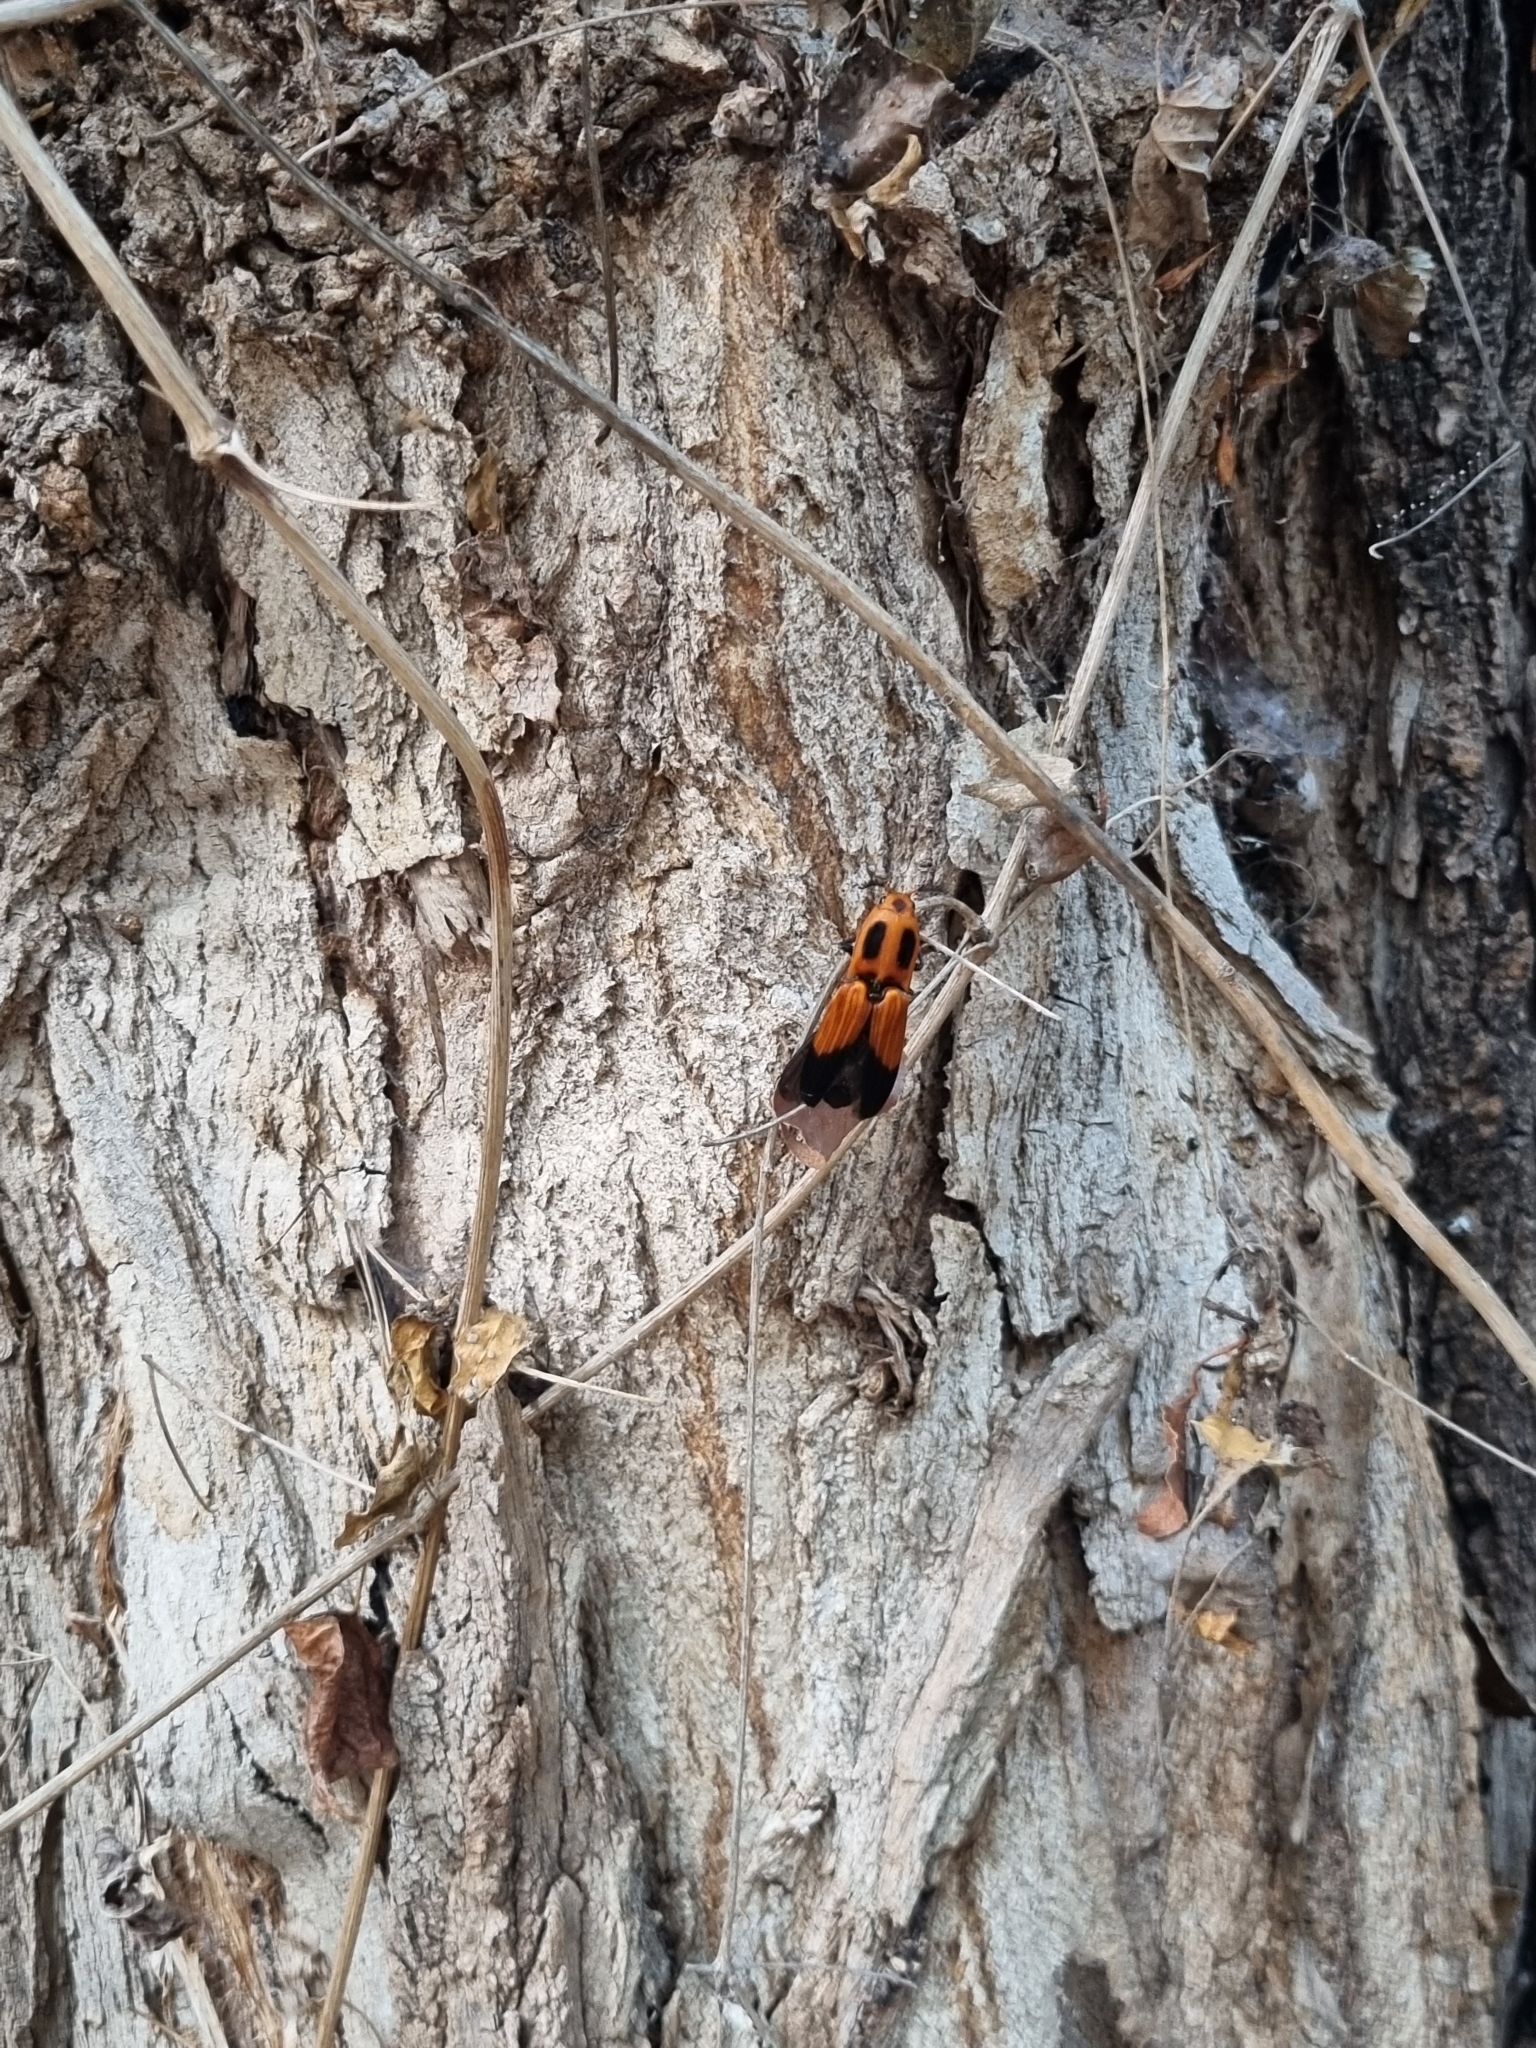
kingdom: Animalia
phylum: Arthropoda
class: Insecta
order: Coleoptera
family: Elateridae
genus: Hemirhipus
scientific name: Hemirhipus
